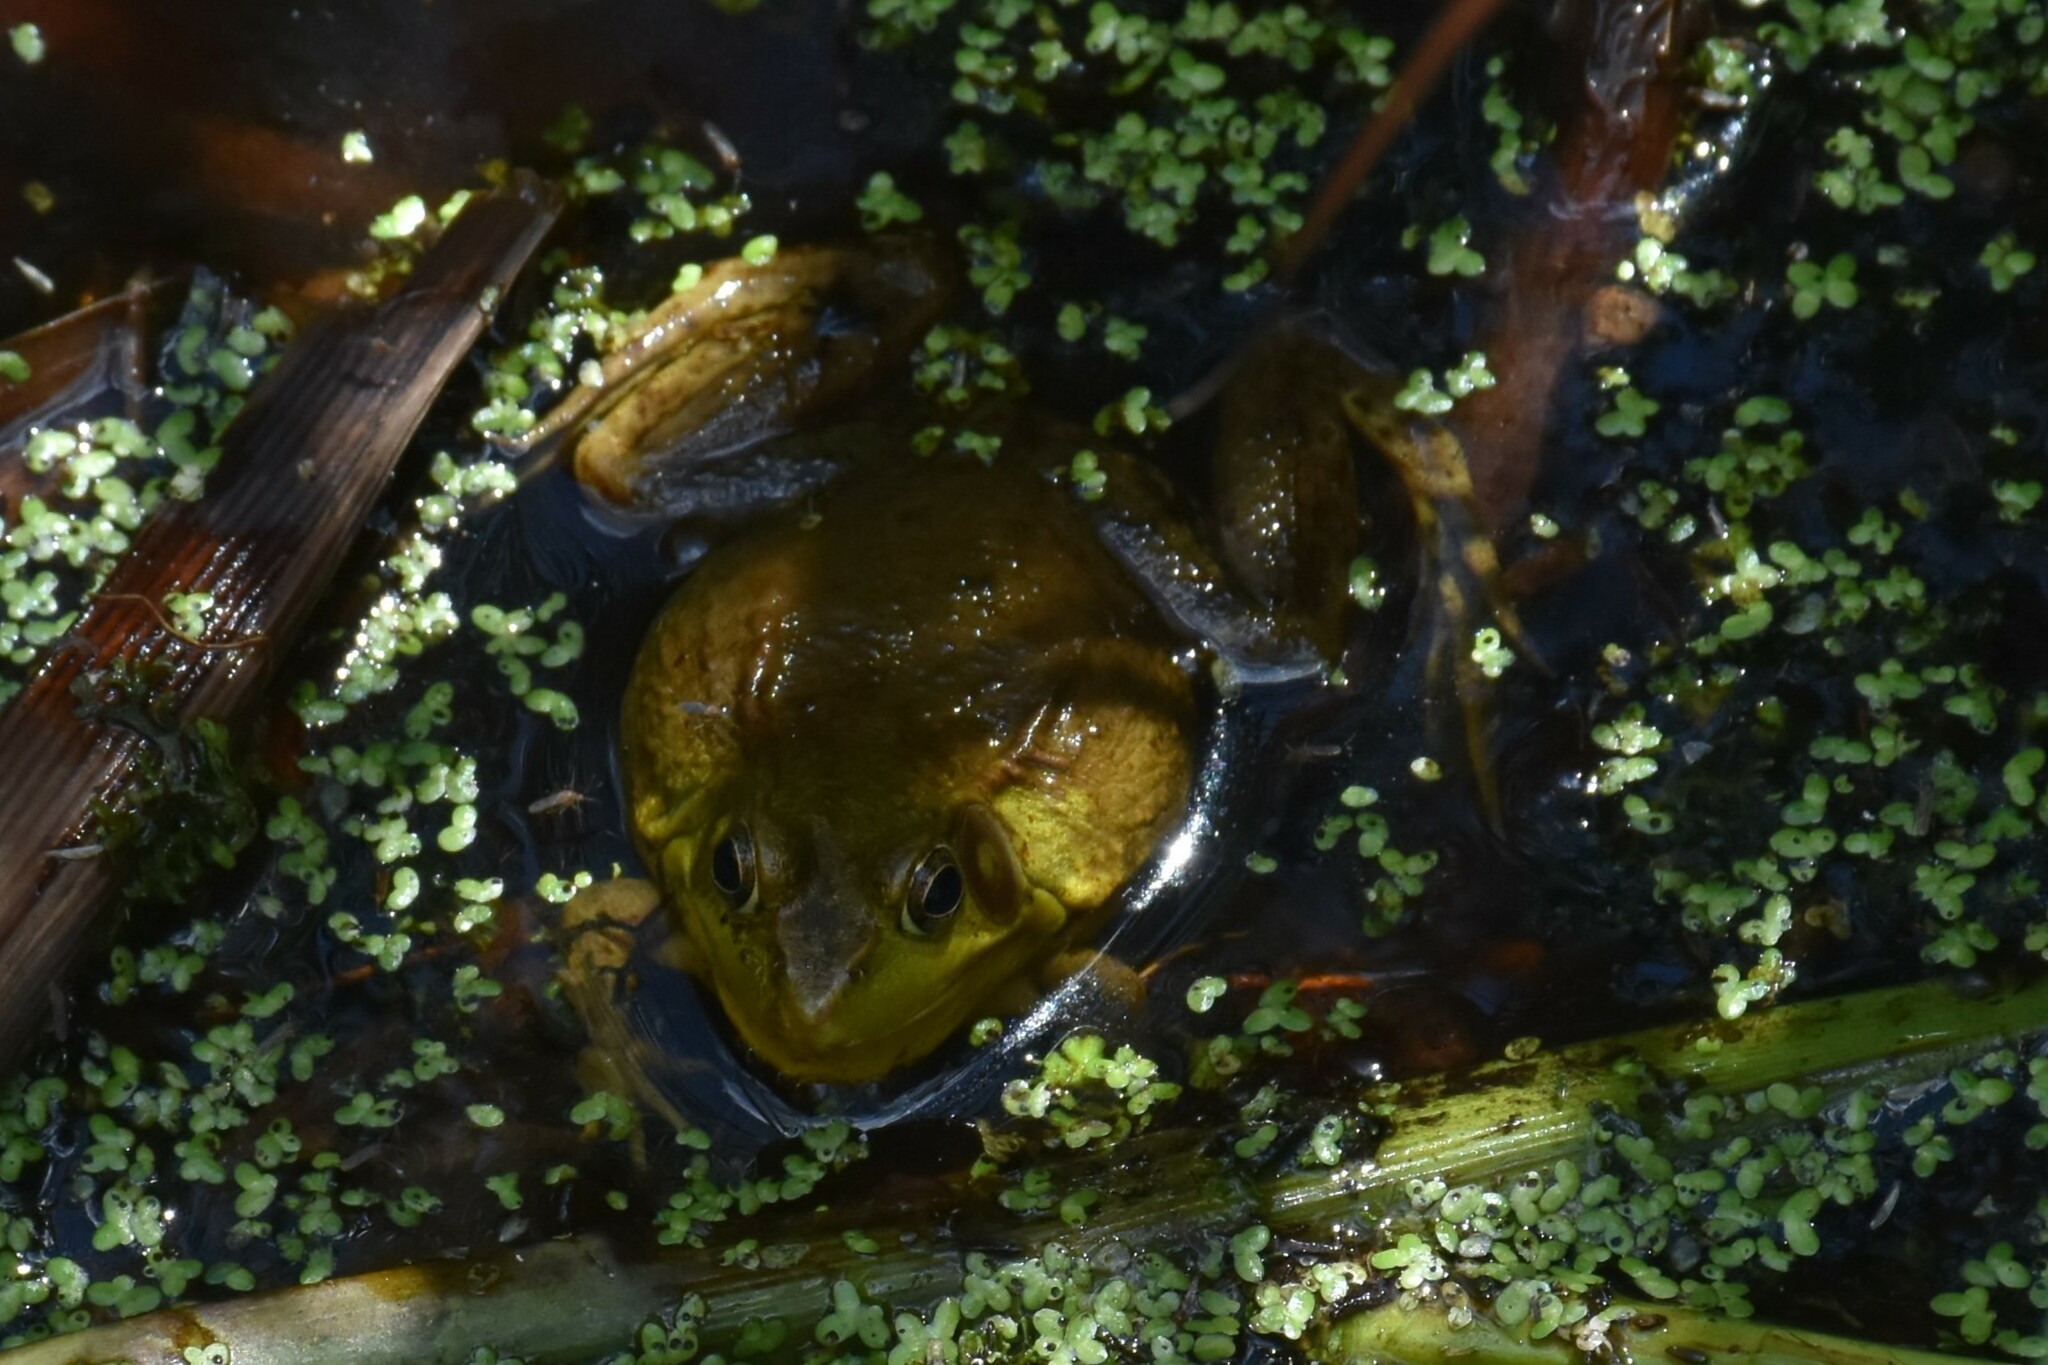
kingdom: Animalia
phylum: Chordata
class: Amphibia
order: Anura
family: Ranidae
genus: Lithobates
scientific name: Lithobates clamitans
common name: Green frog
